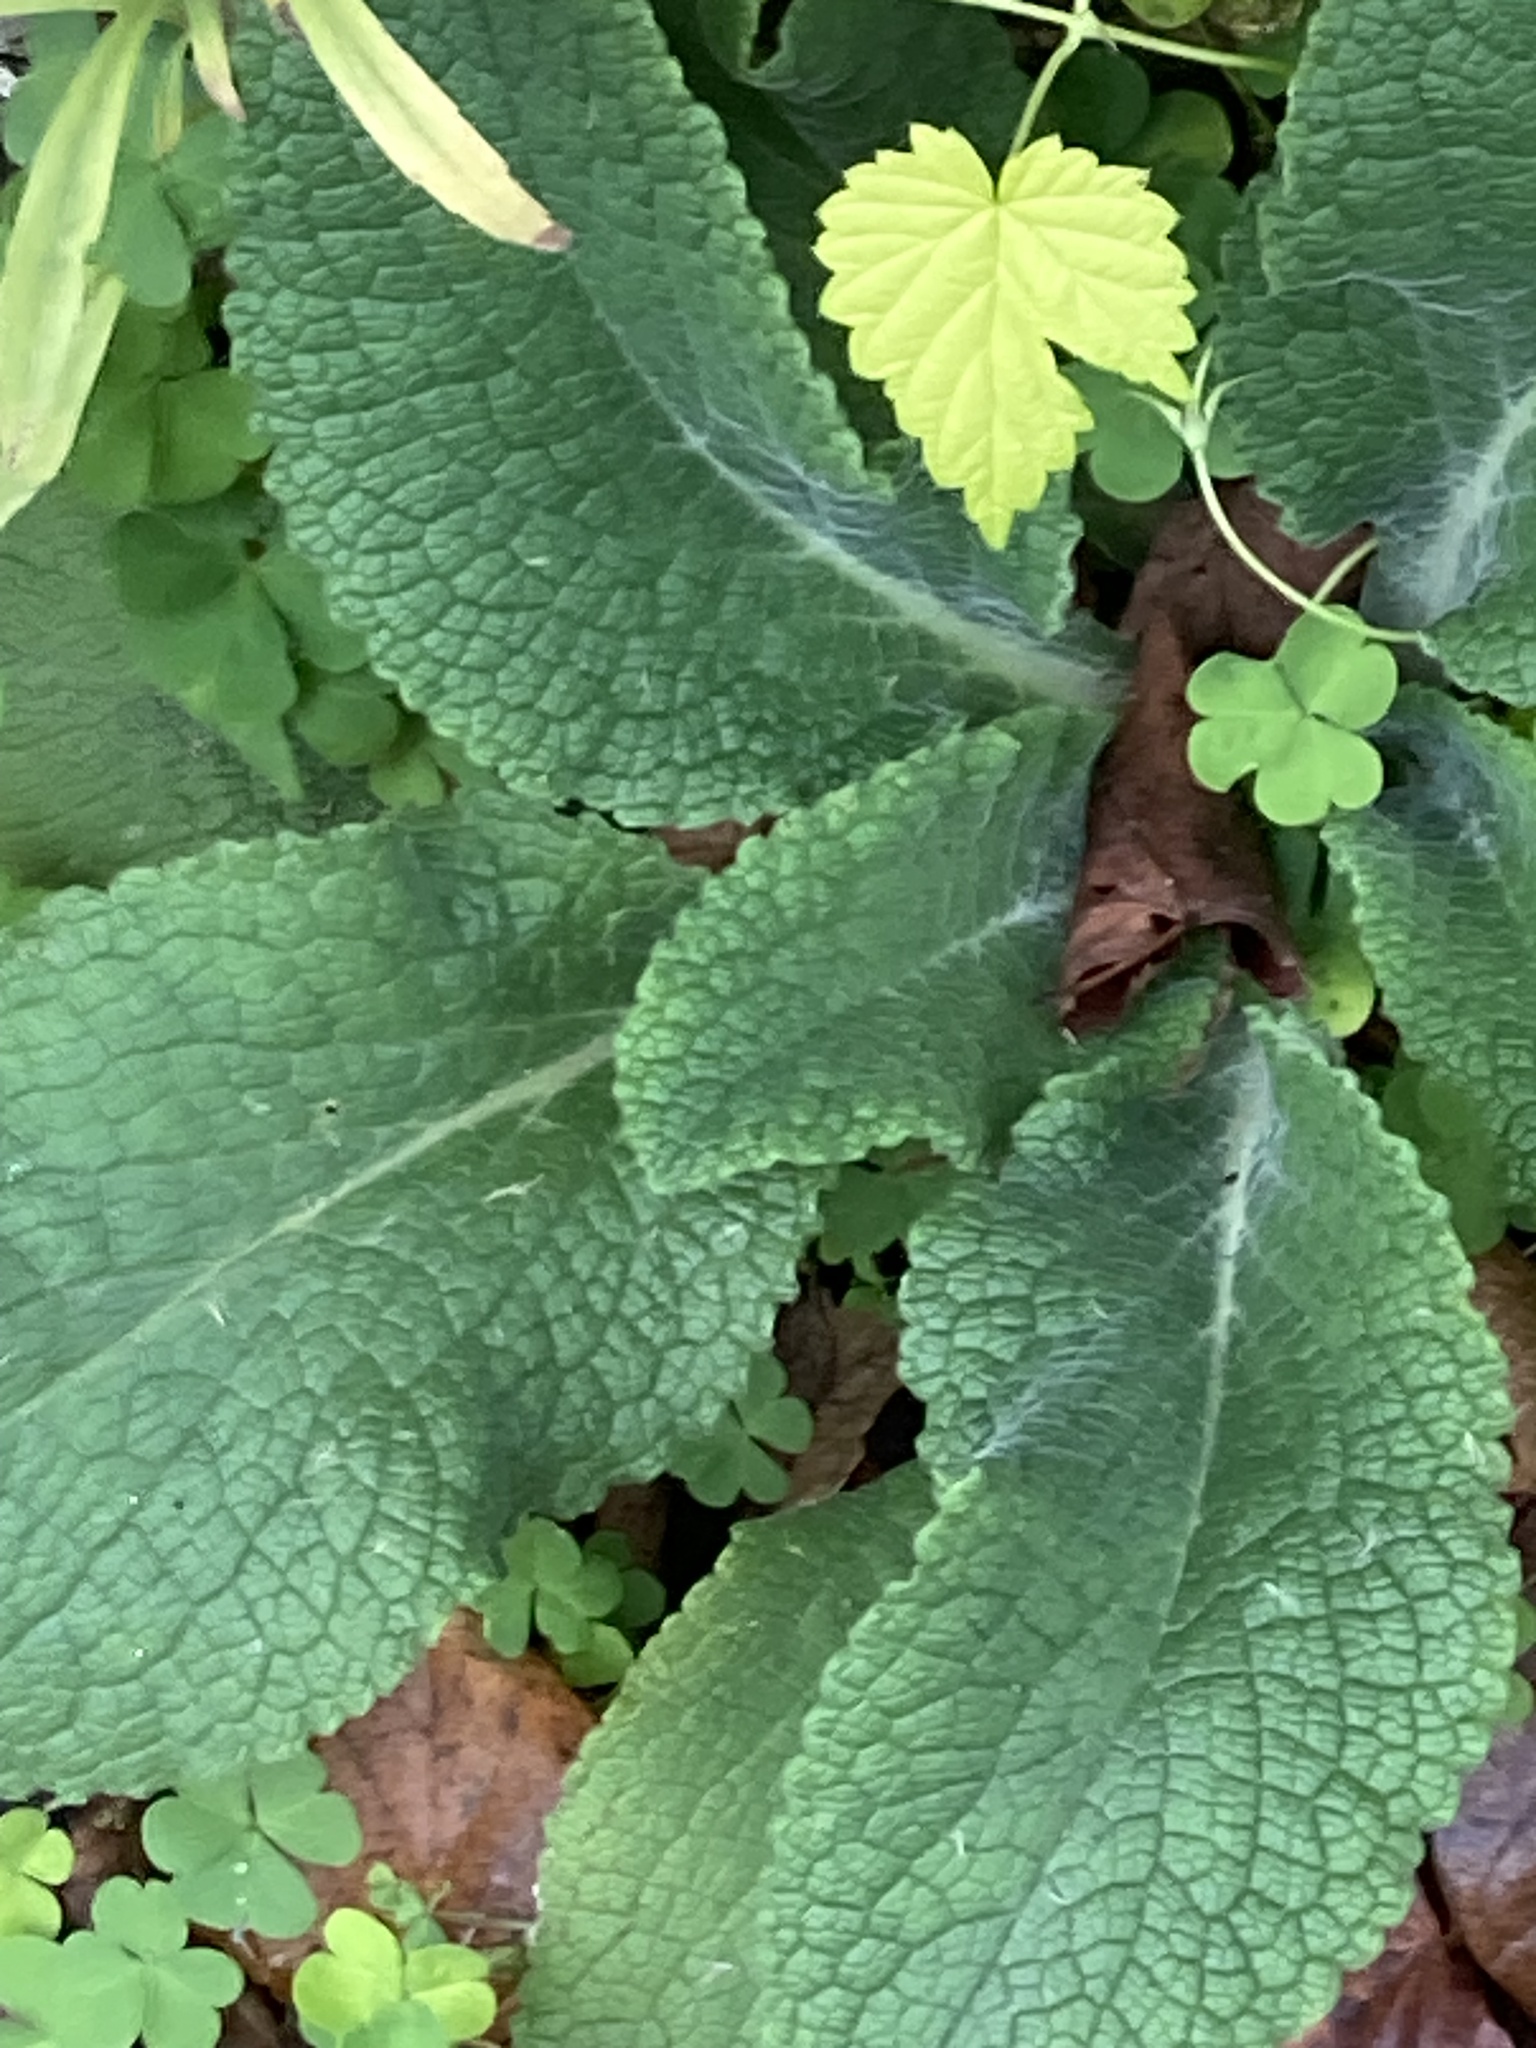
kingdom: Plantae
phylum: Tracheophyta
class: Magnoliopsida
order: Lamiales
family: Plantaginaceae
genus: Digitalis
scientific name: Digitalis purpurea
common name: Foxglove
